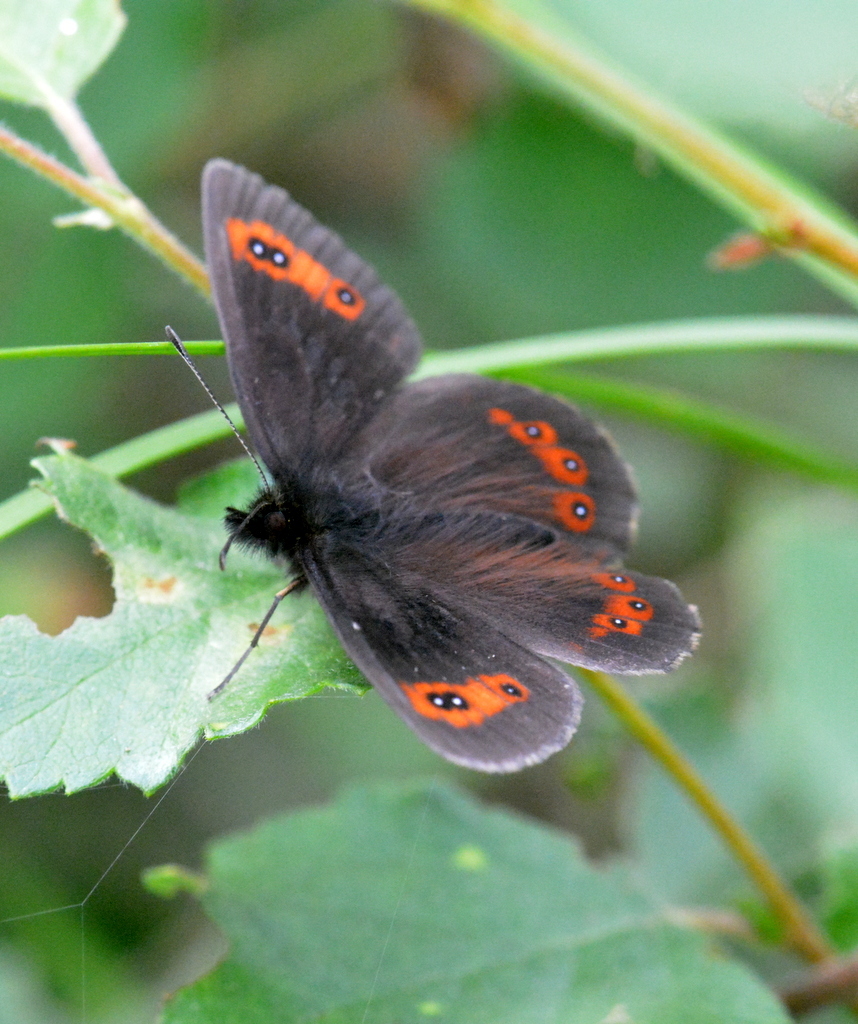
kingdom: Animalia
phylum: Arthropoda
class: Insecta
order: Lepidoptera
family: Nymphalidae
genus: Erebia
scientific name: Erebia aethiops
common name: Scotch argus
